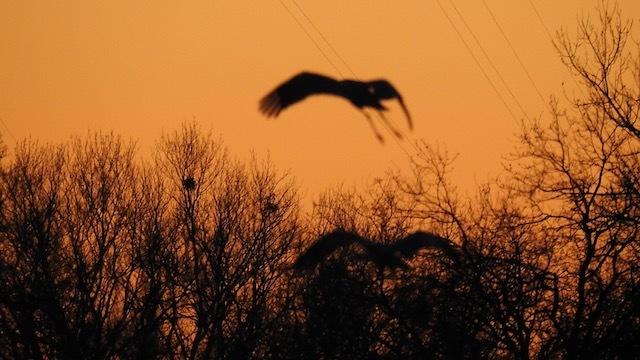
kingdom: Animalia
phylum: Chordata
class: Aves
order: Gruiformes
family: Gruidae
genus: Grus
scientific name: Grus canadensis
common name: Sandhill crane
